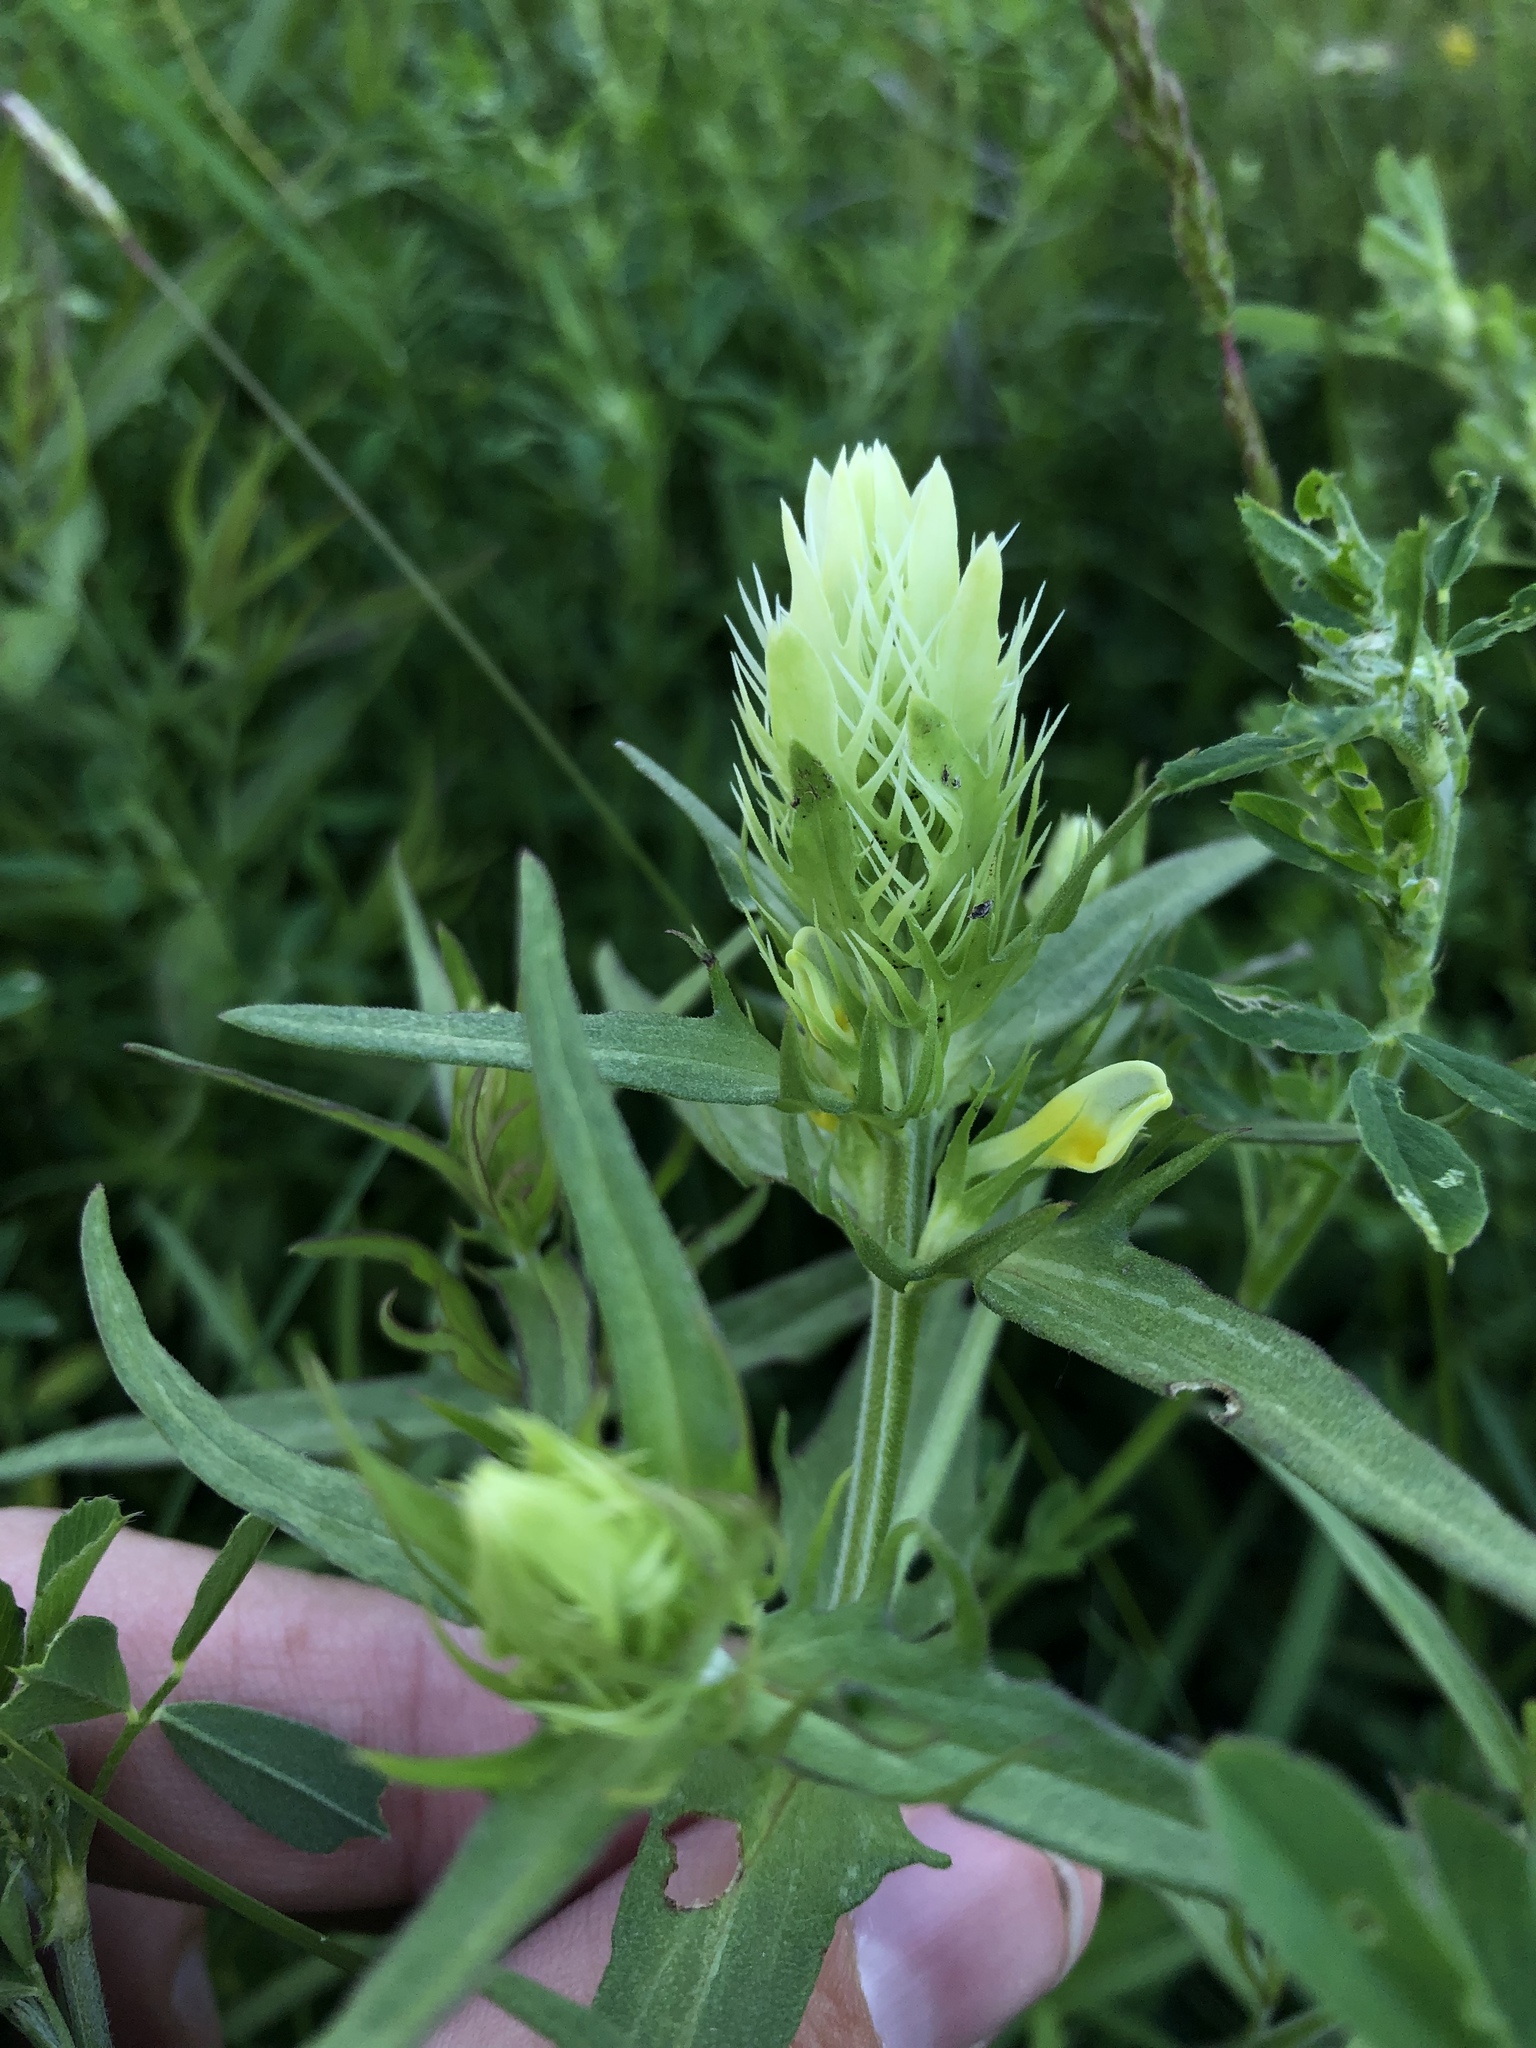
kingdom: Plantae
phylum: Tracheophyta
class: Magnoliopsida
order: Lamiales
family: Orobanchaceae
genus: Melampyrum
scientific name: Melampyrum arvense
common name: Field cow-wheat
